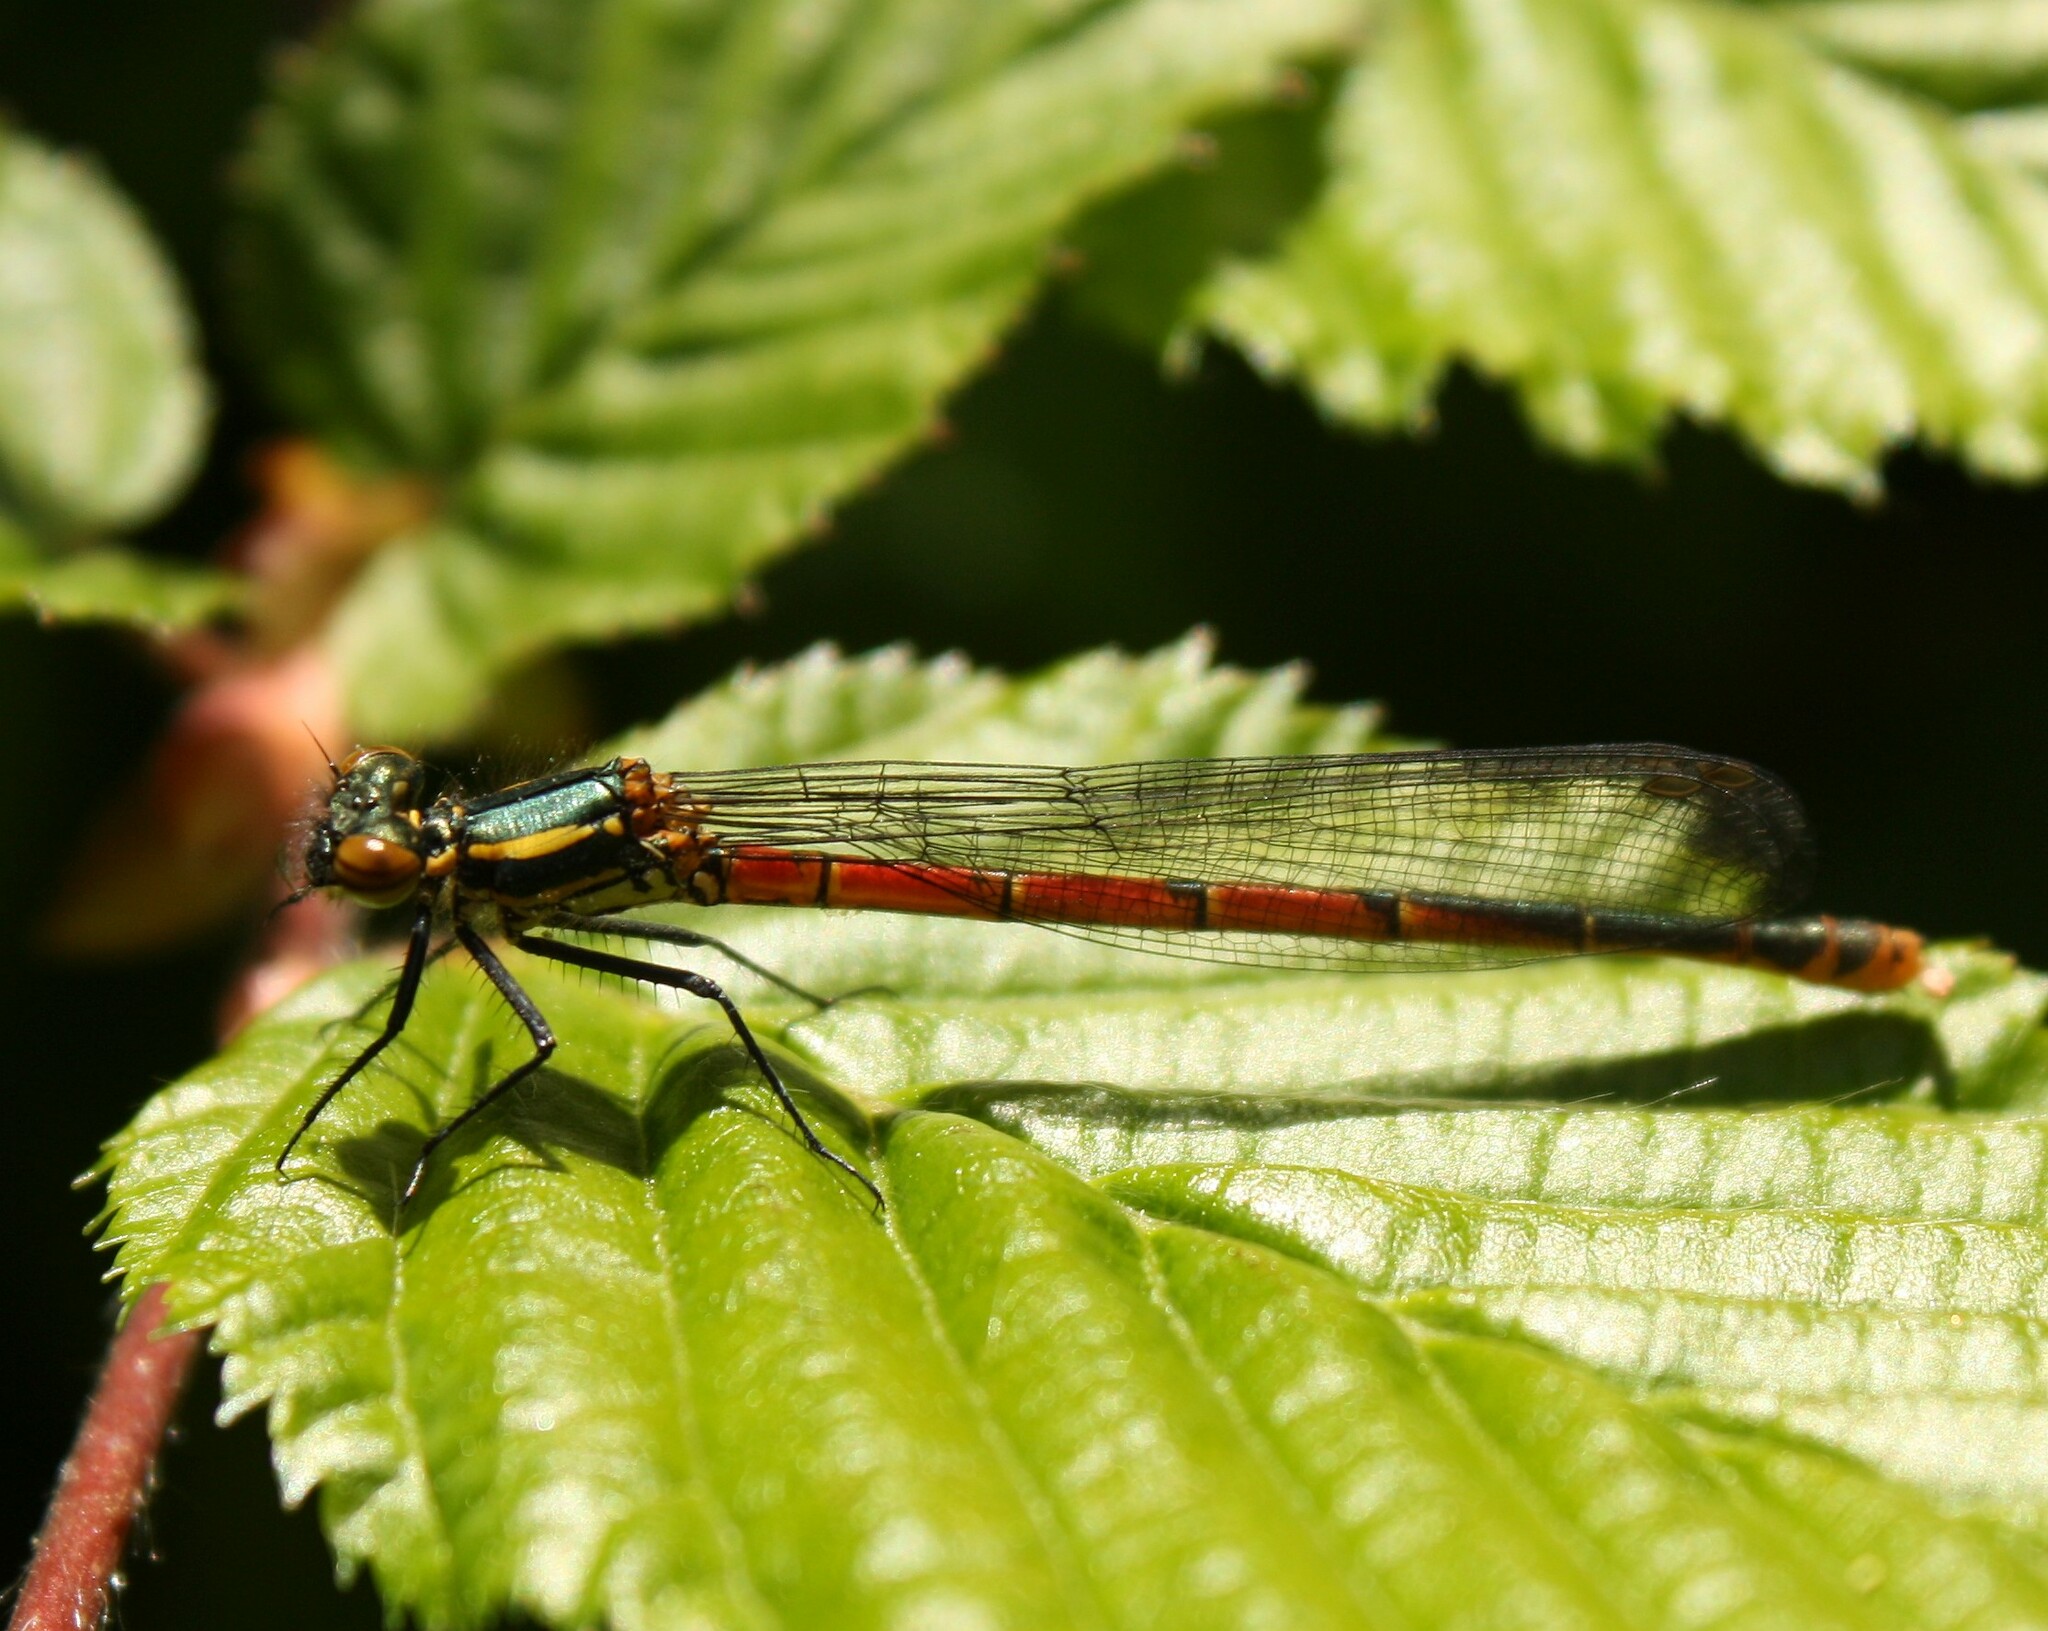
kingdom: Animalia
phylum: Arthropoda
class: Insecta
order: Odonata
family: Coenagrionidae
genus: Pyrrhosoma
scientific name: Pyrrhosoma nymphula
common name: Large red damsel
